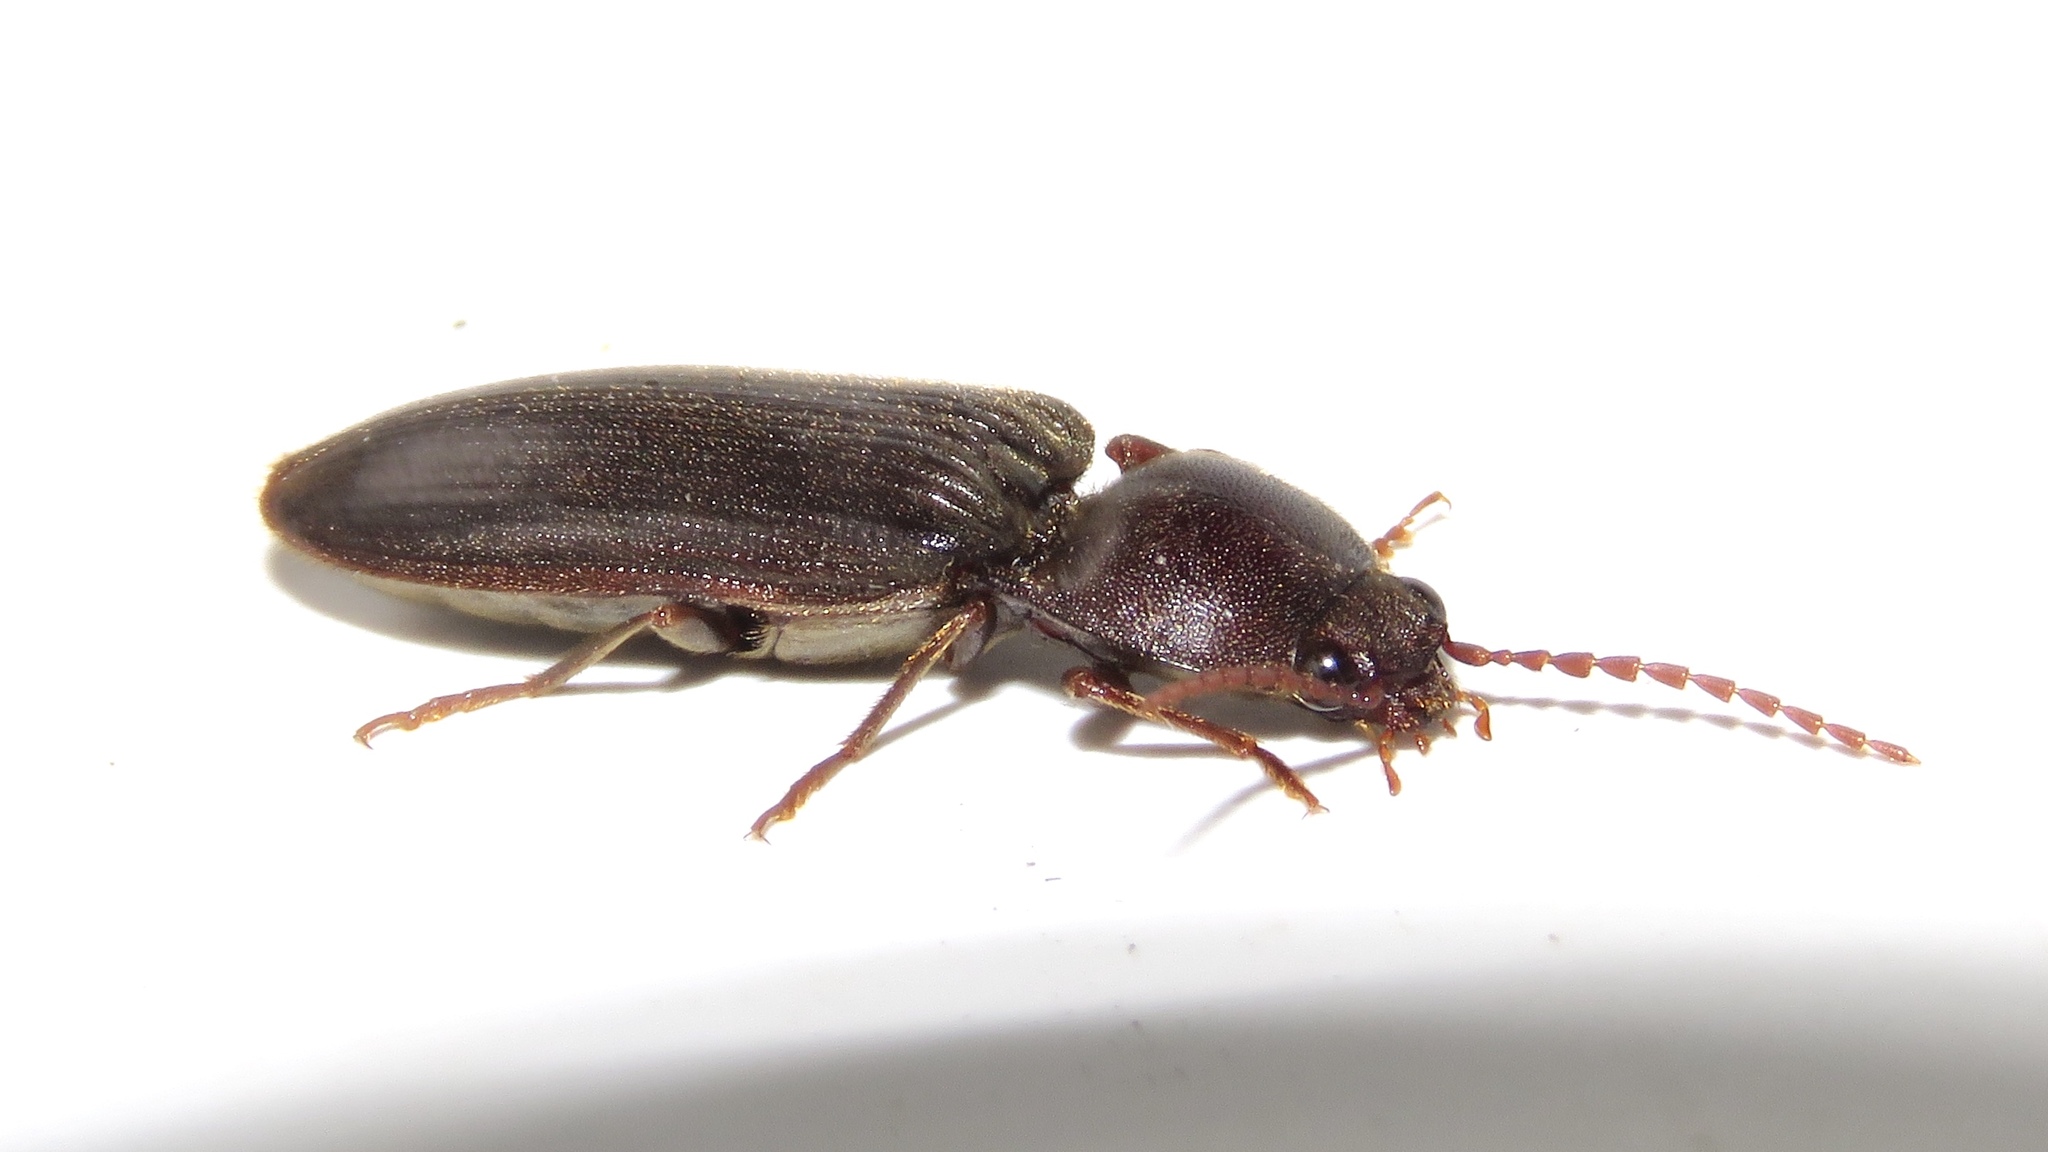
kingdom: Animalia
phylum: Arthropoda
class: Insecta
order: Coleoptera
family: Elateridae
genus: Hemicrepidius
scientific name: Hemicrepidius
